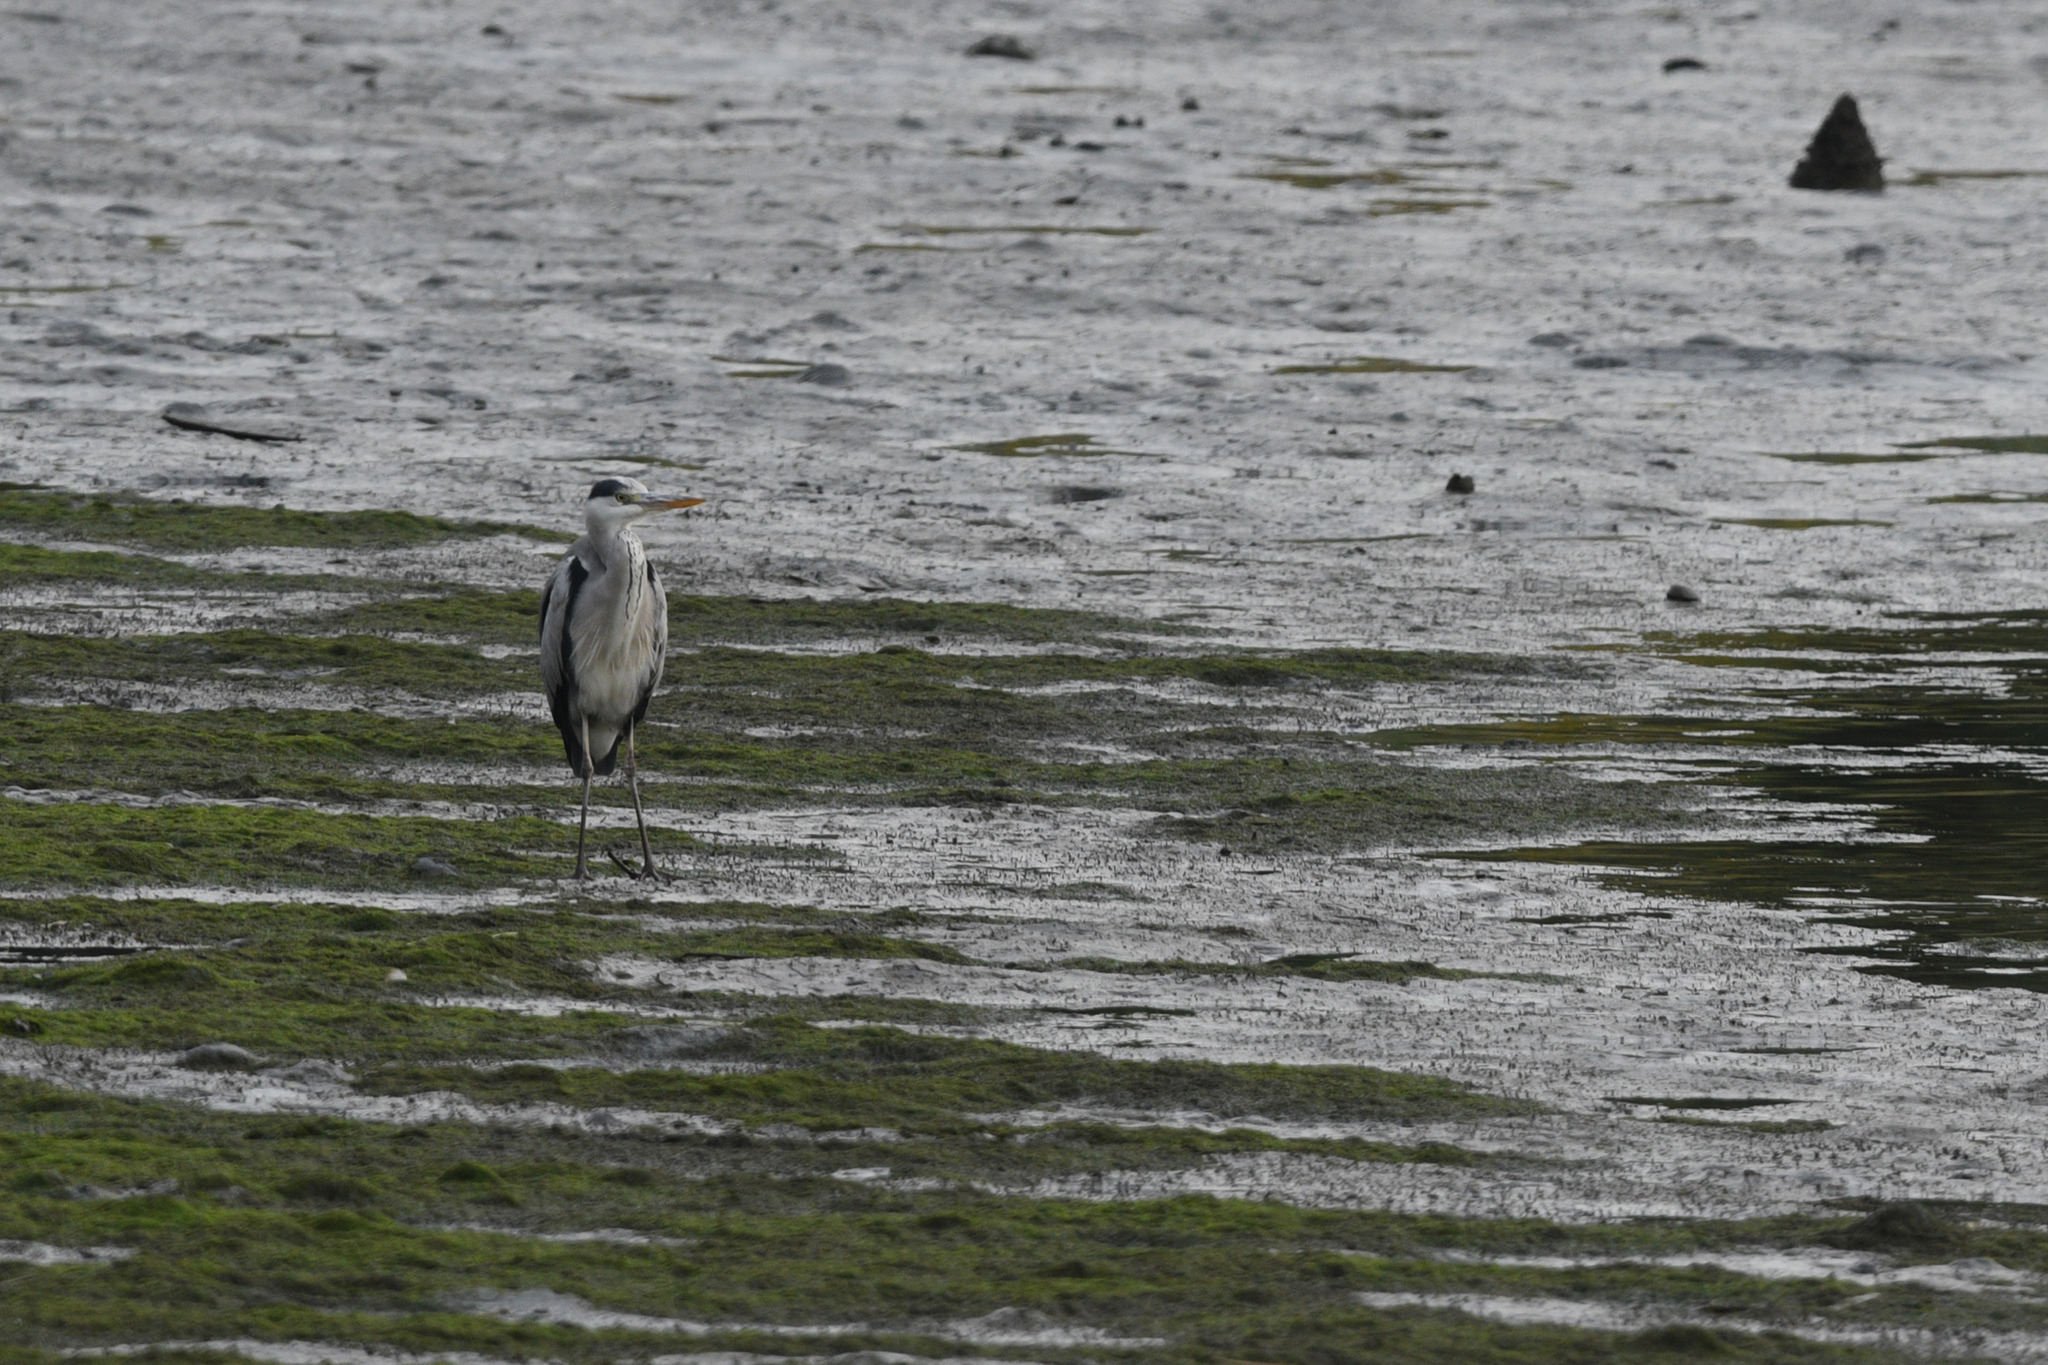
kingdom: Animalia
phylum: Chordata
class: Aves
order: Pelecaniformes
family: Ardeidae
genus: Ardea
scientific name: Ardea cinerea
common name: Grey heron
